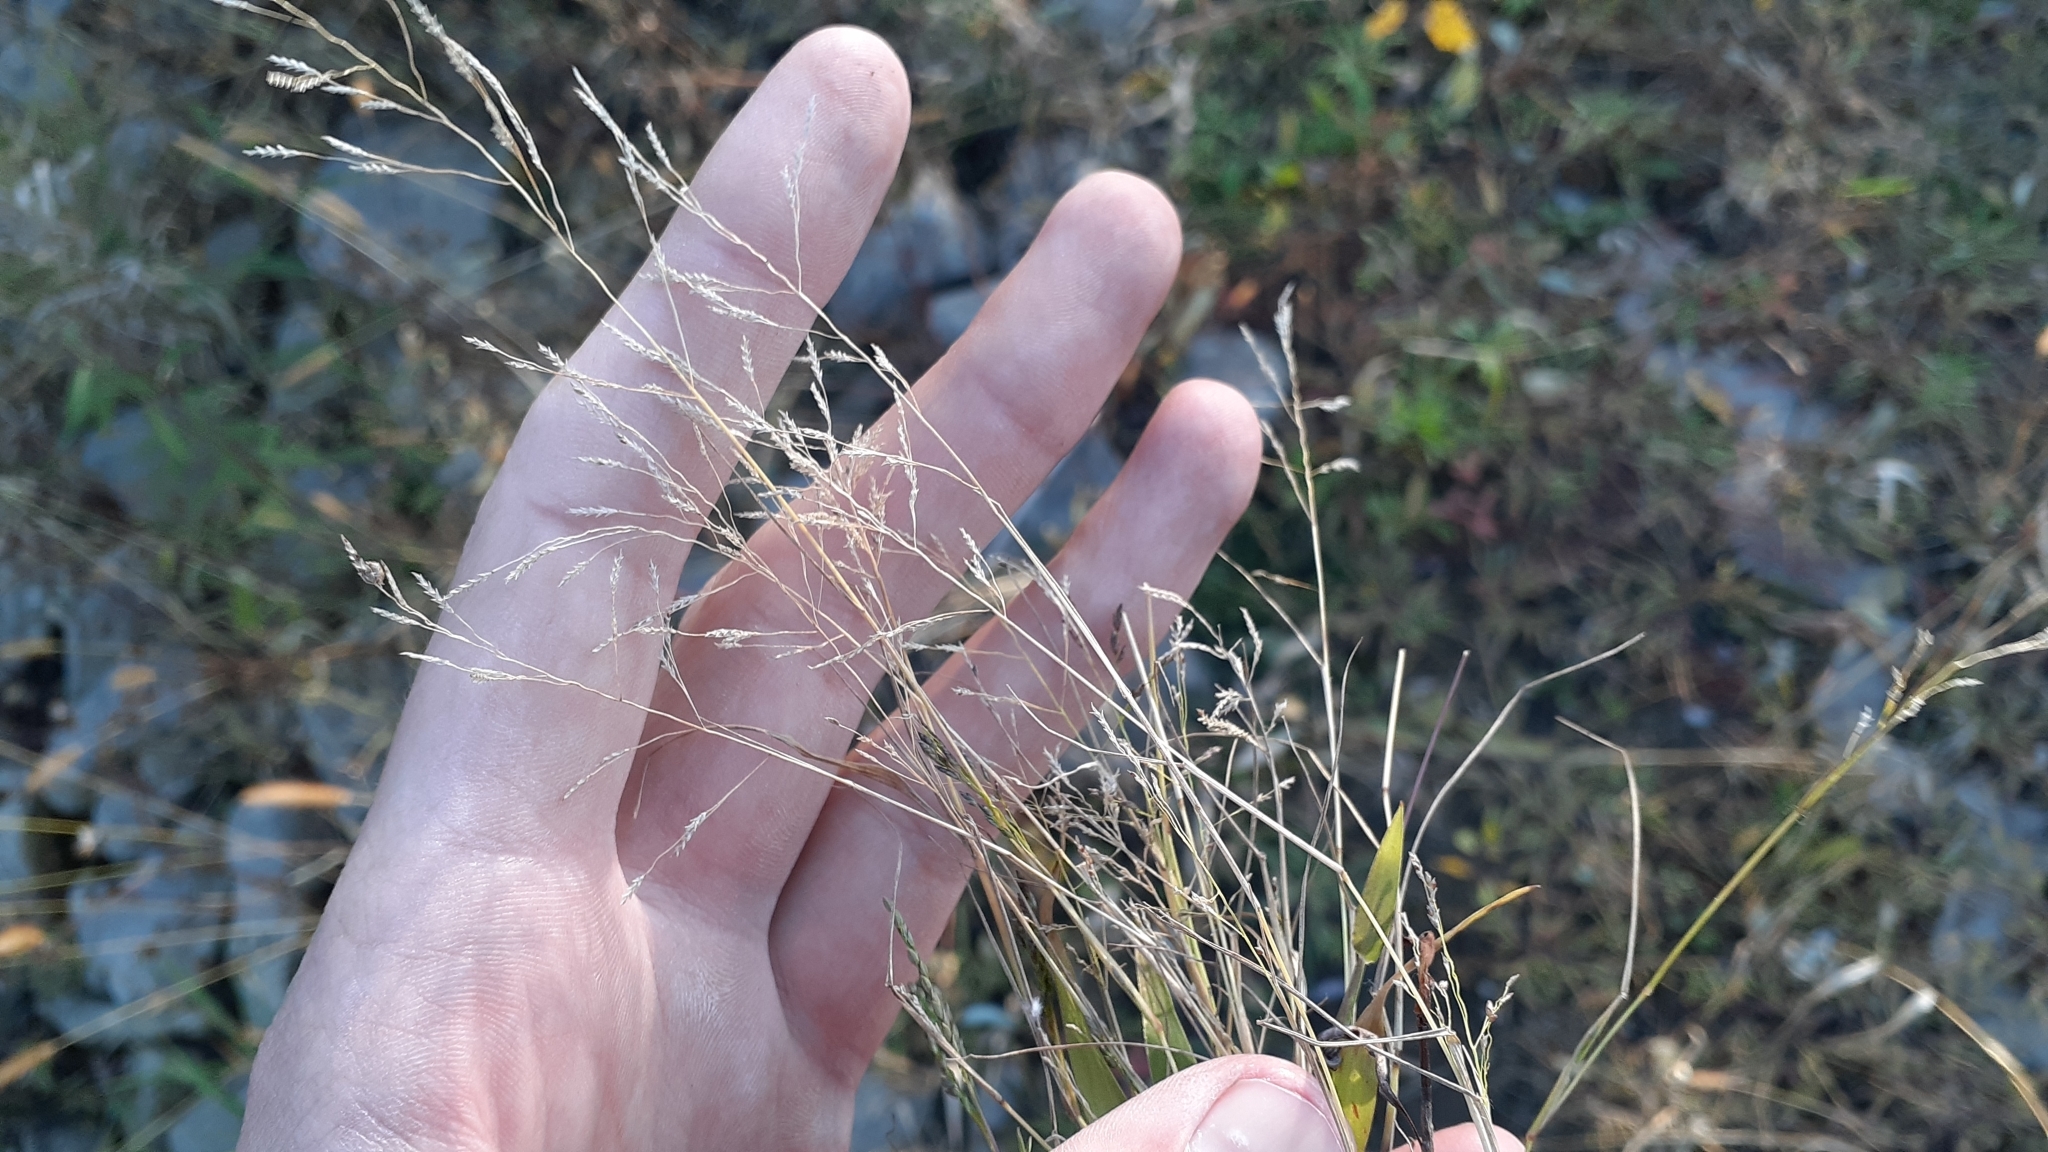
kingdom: Plantae
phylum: Tracheophyta
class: Liliopsida
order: Poales
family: Poaceae
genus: Eragrostis
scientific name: Eragrostis pectinacea
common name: Tufted lovegrass
